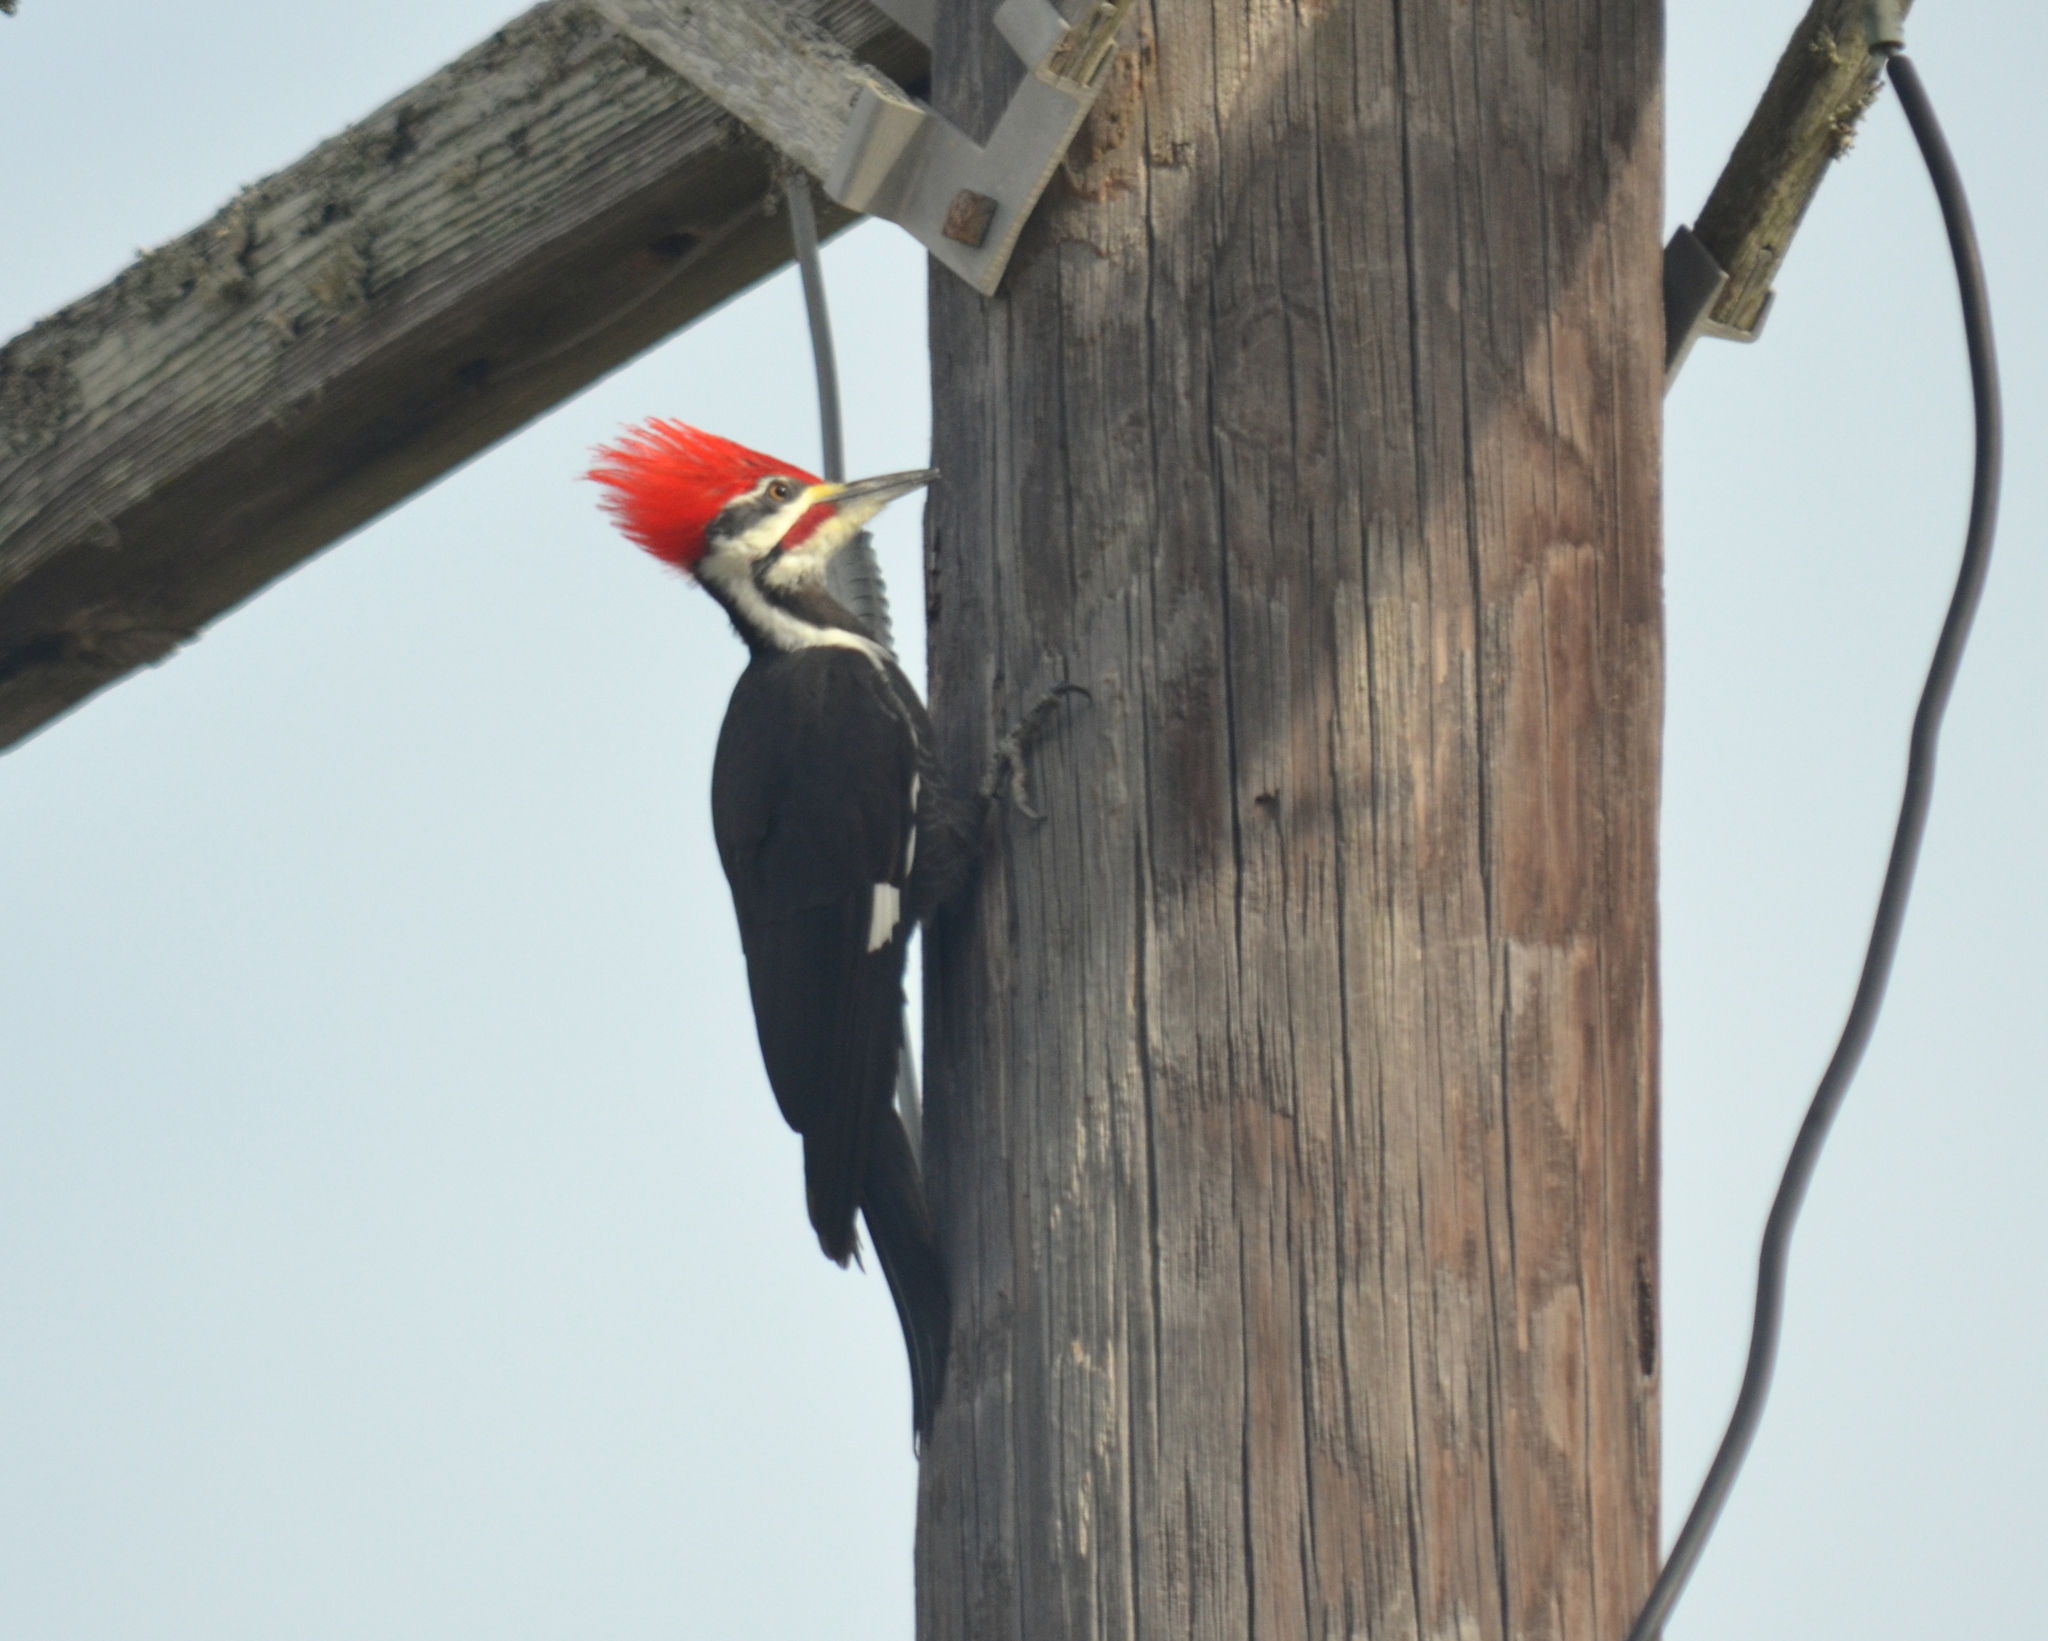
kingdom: Animalia
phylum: Chordata
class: Aves
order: Piciformes
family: Picidae
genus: Dryocopus
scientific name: Dryocopus pileatus
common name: Pileated woodpecker
